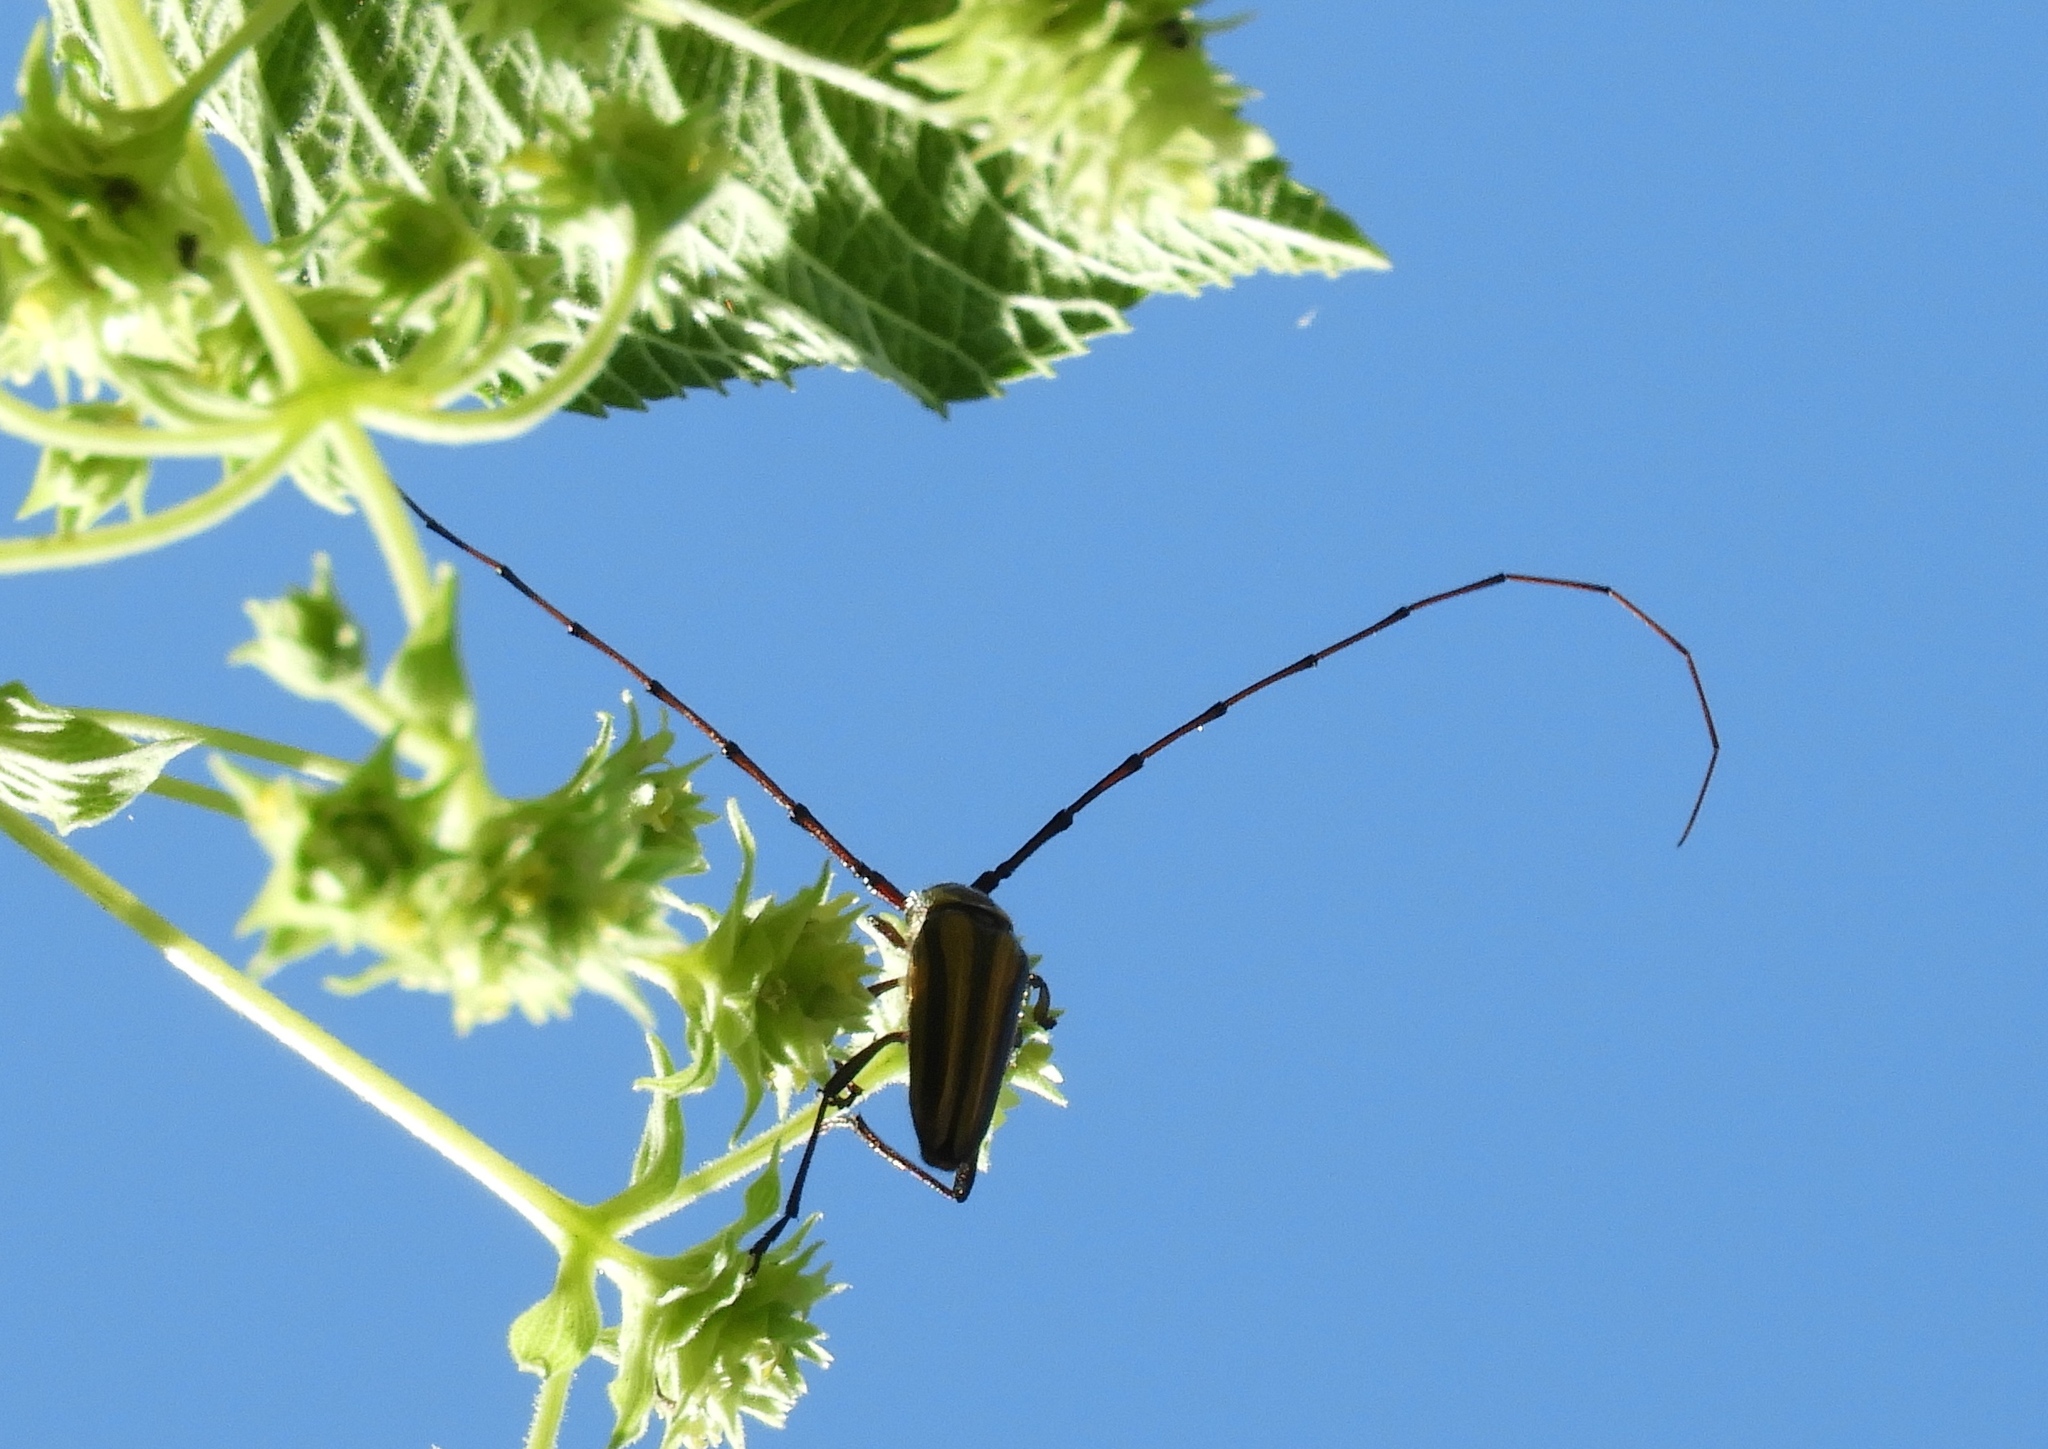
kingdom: Animalia
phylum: Arthropoda
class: Insecta
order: Coleoptera
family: Cerambycidae
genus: Sphaenothecus
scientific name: Sphaenothecus maccartyi
